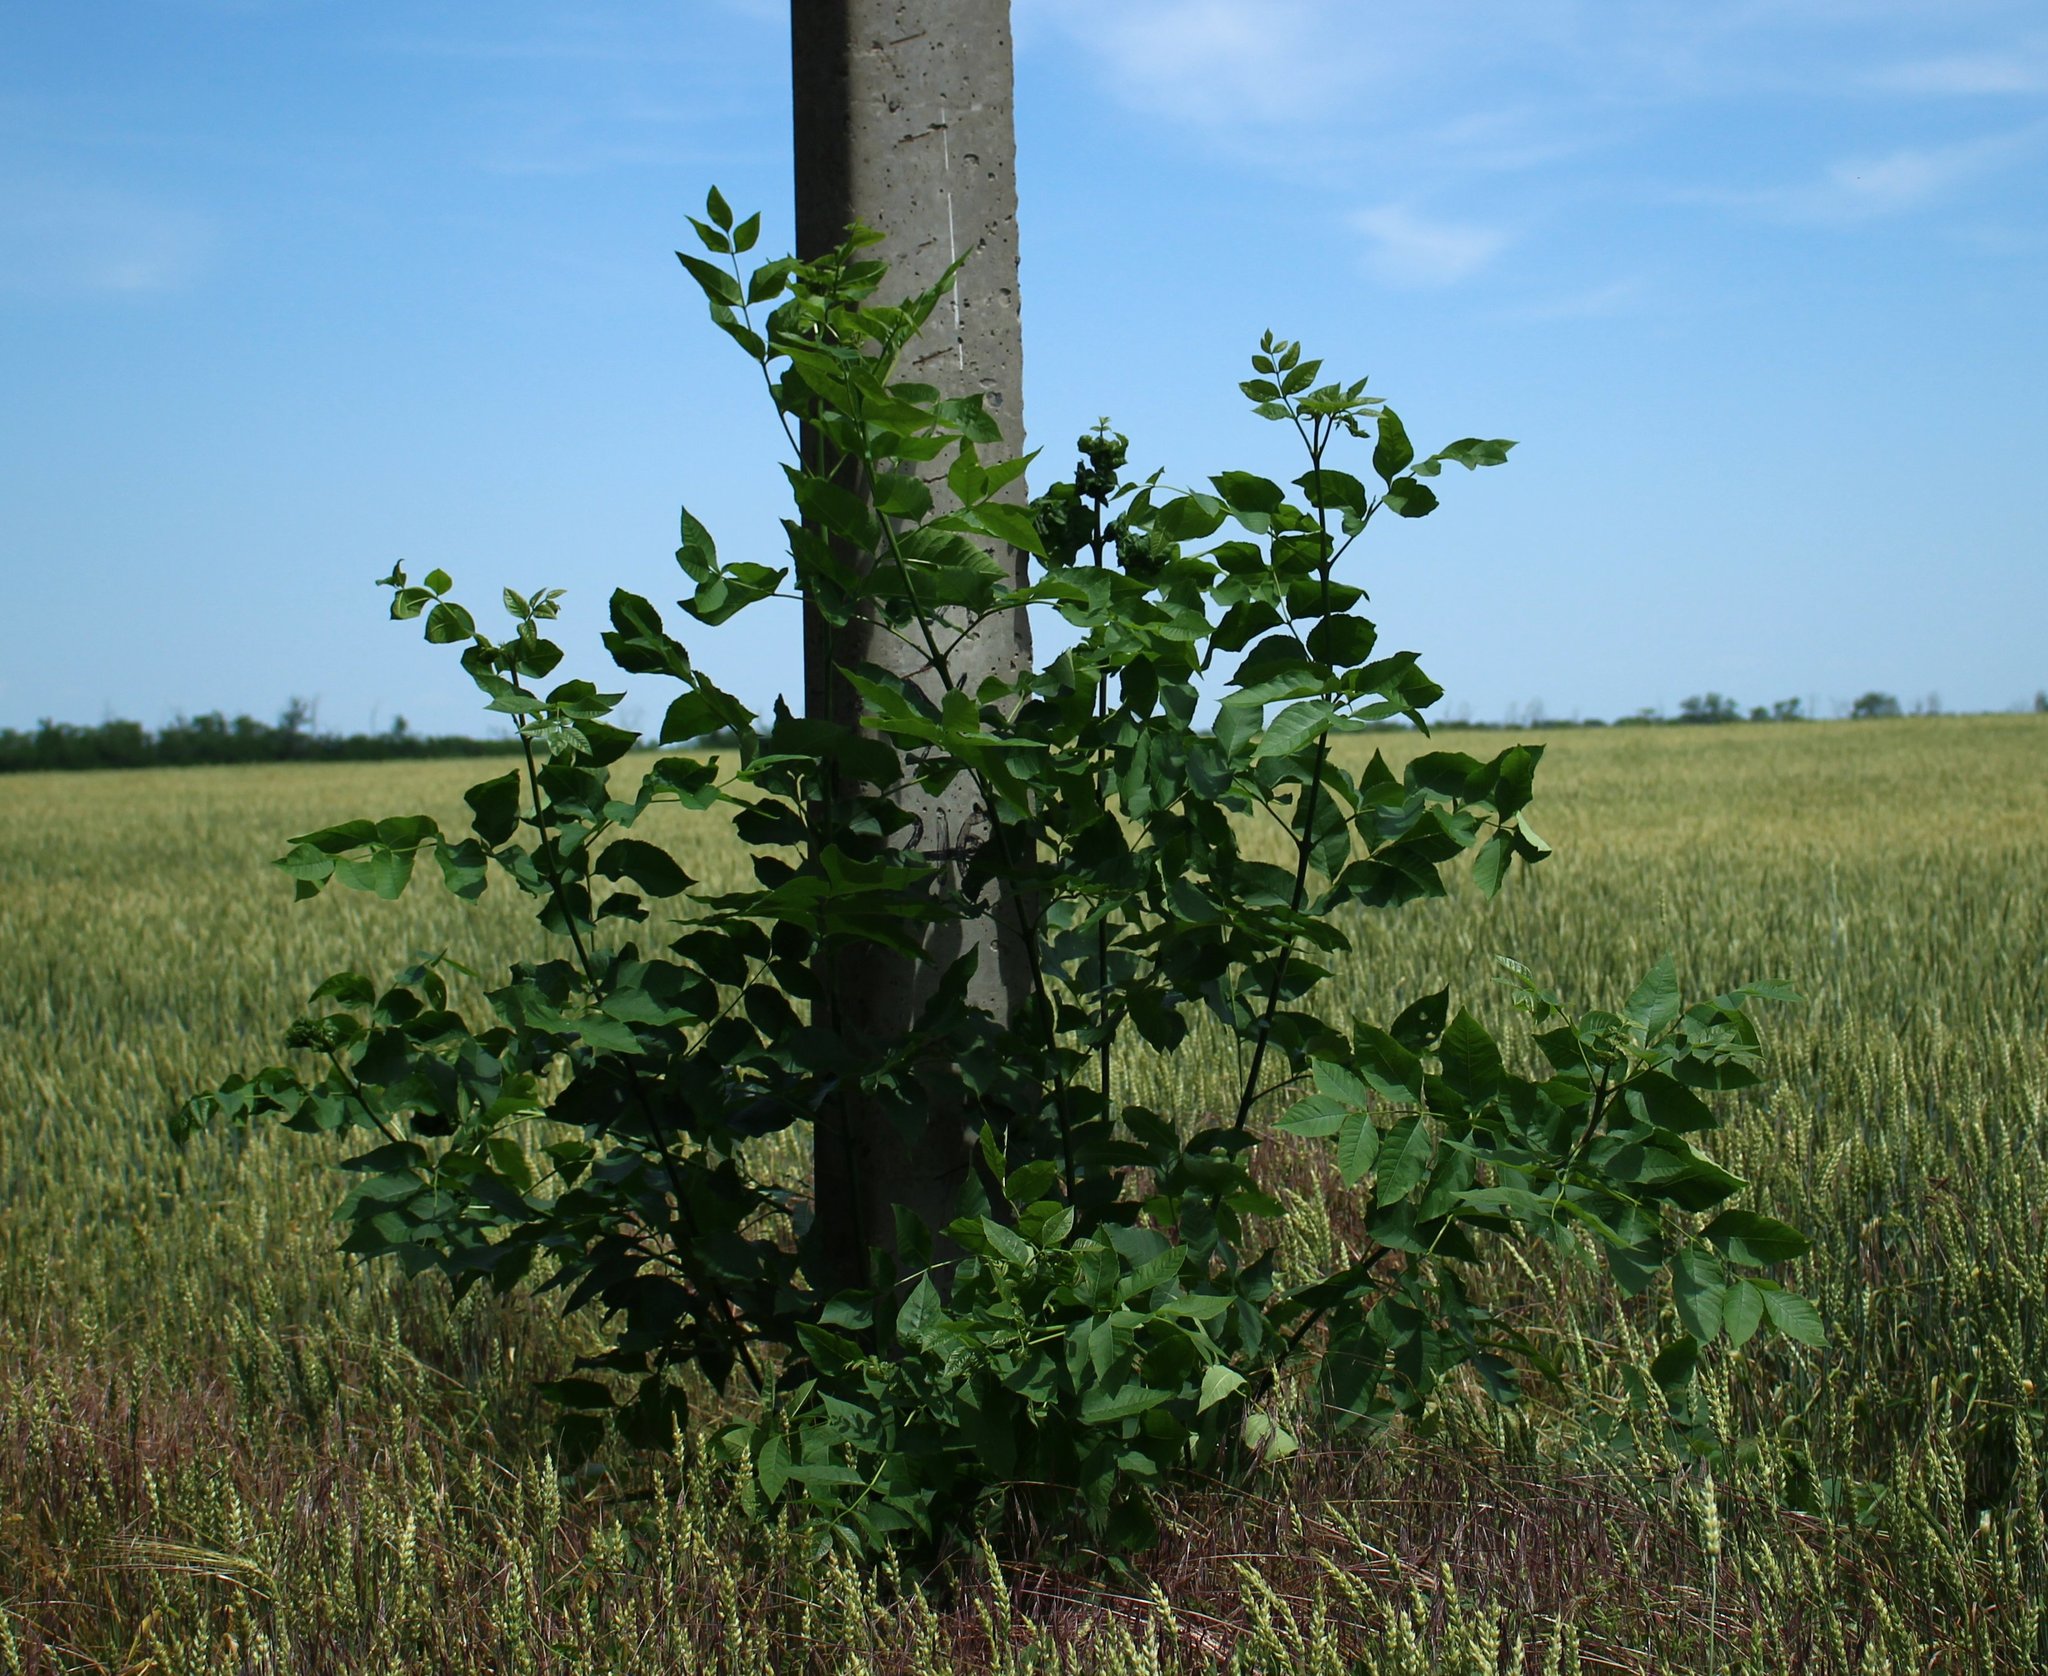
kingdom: Plantae
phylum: Tracheophyta
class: Magnoliopsida
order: Lamiales
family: Oleaceae
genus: Fraxinus
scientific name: Fraxinus pennsylvanica
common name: Green ash
